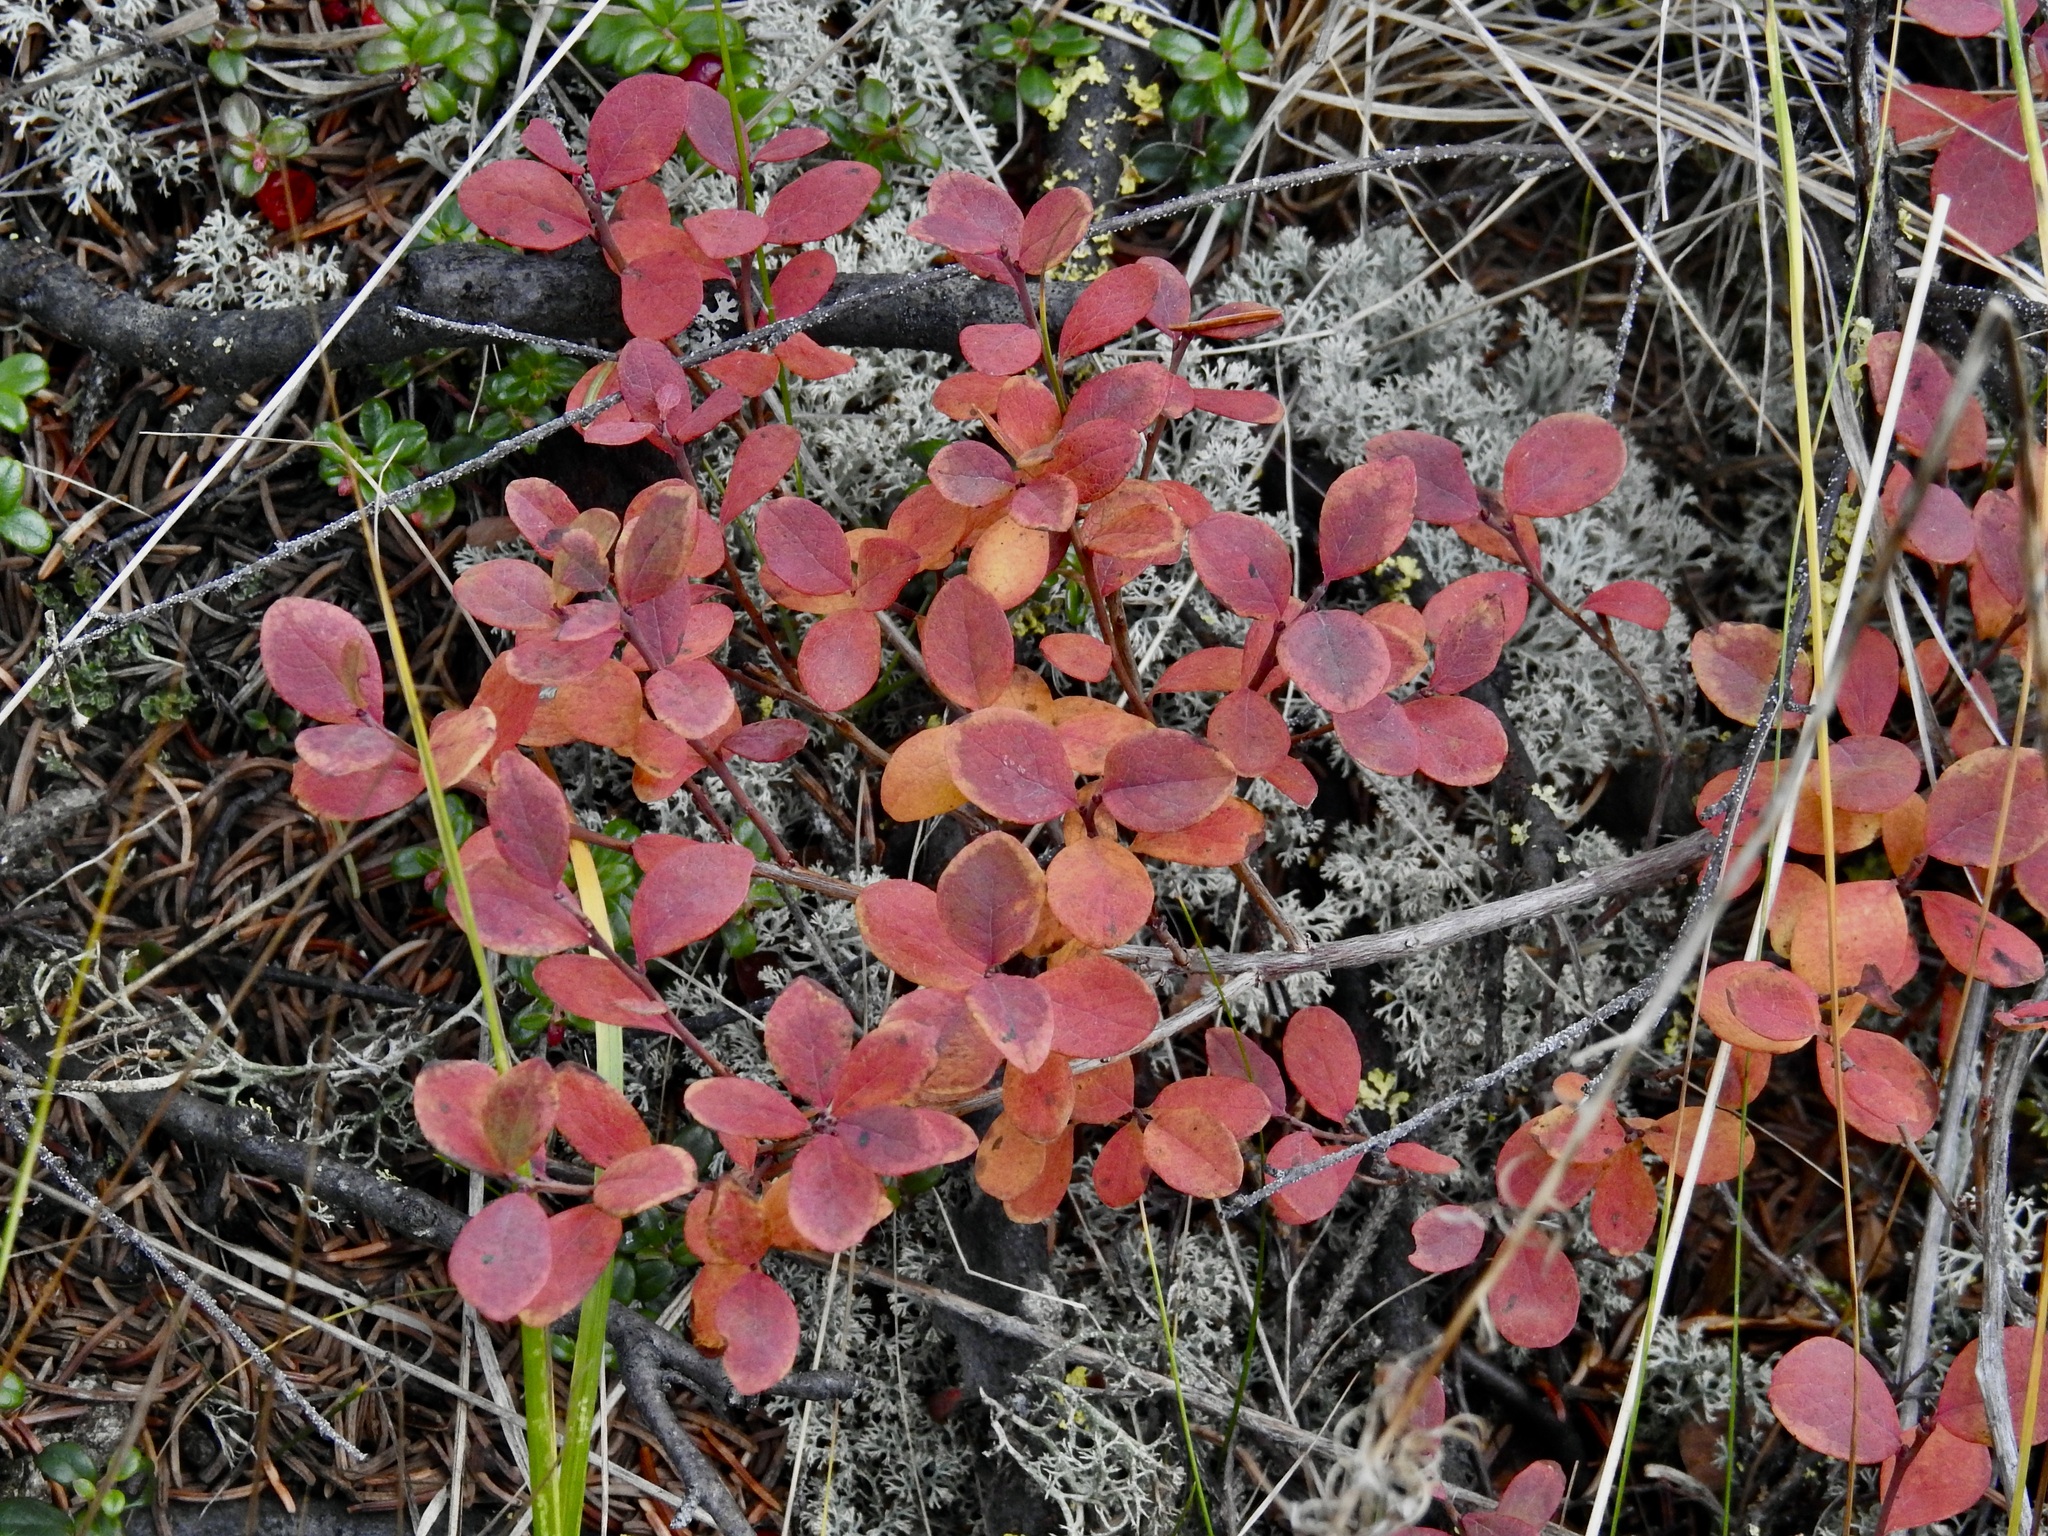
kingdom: Plantae
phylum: Tracheophyta
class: Magnoliopsida
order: Ericales
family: Ericaceae
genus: Vaccinium
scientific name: Vaccinium uliginosum
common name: Bog bilberry
